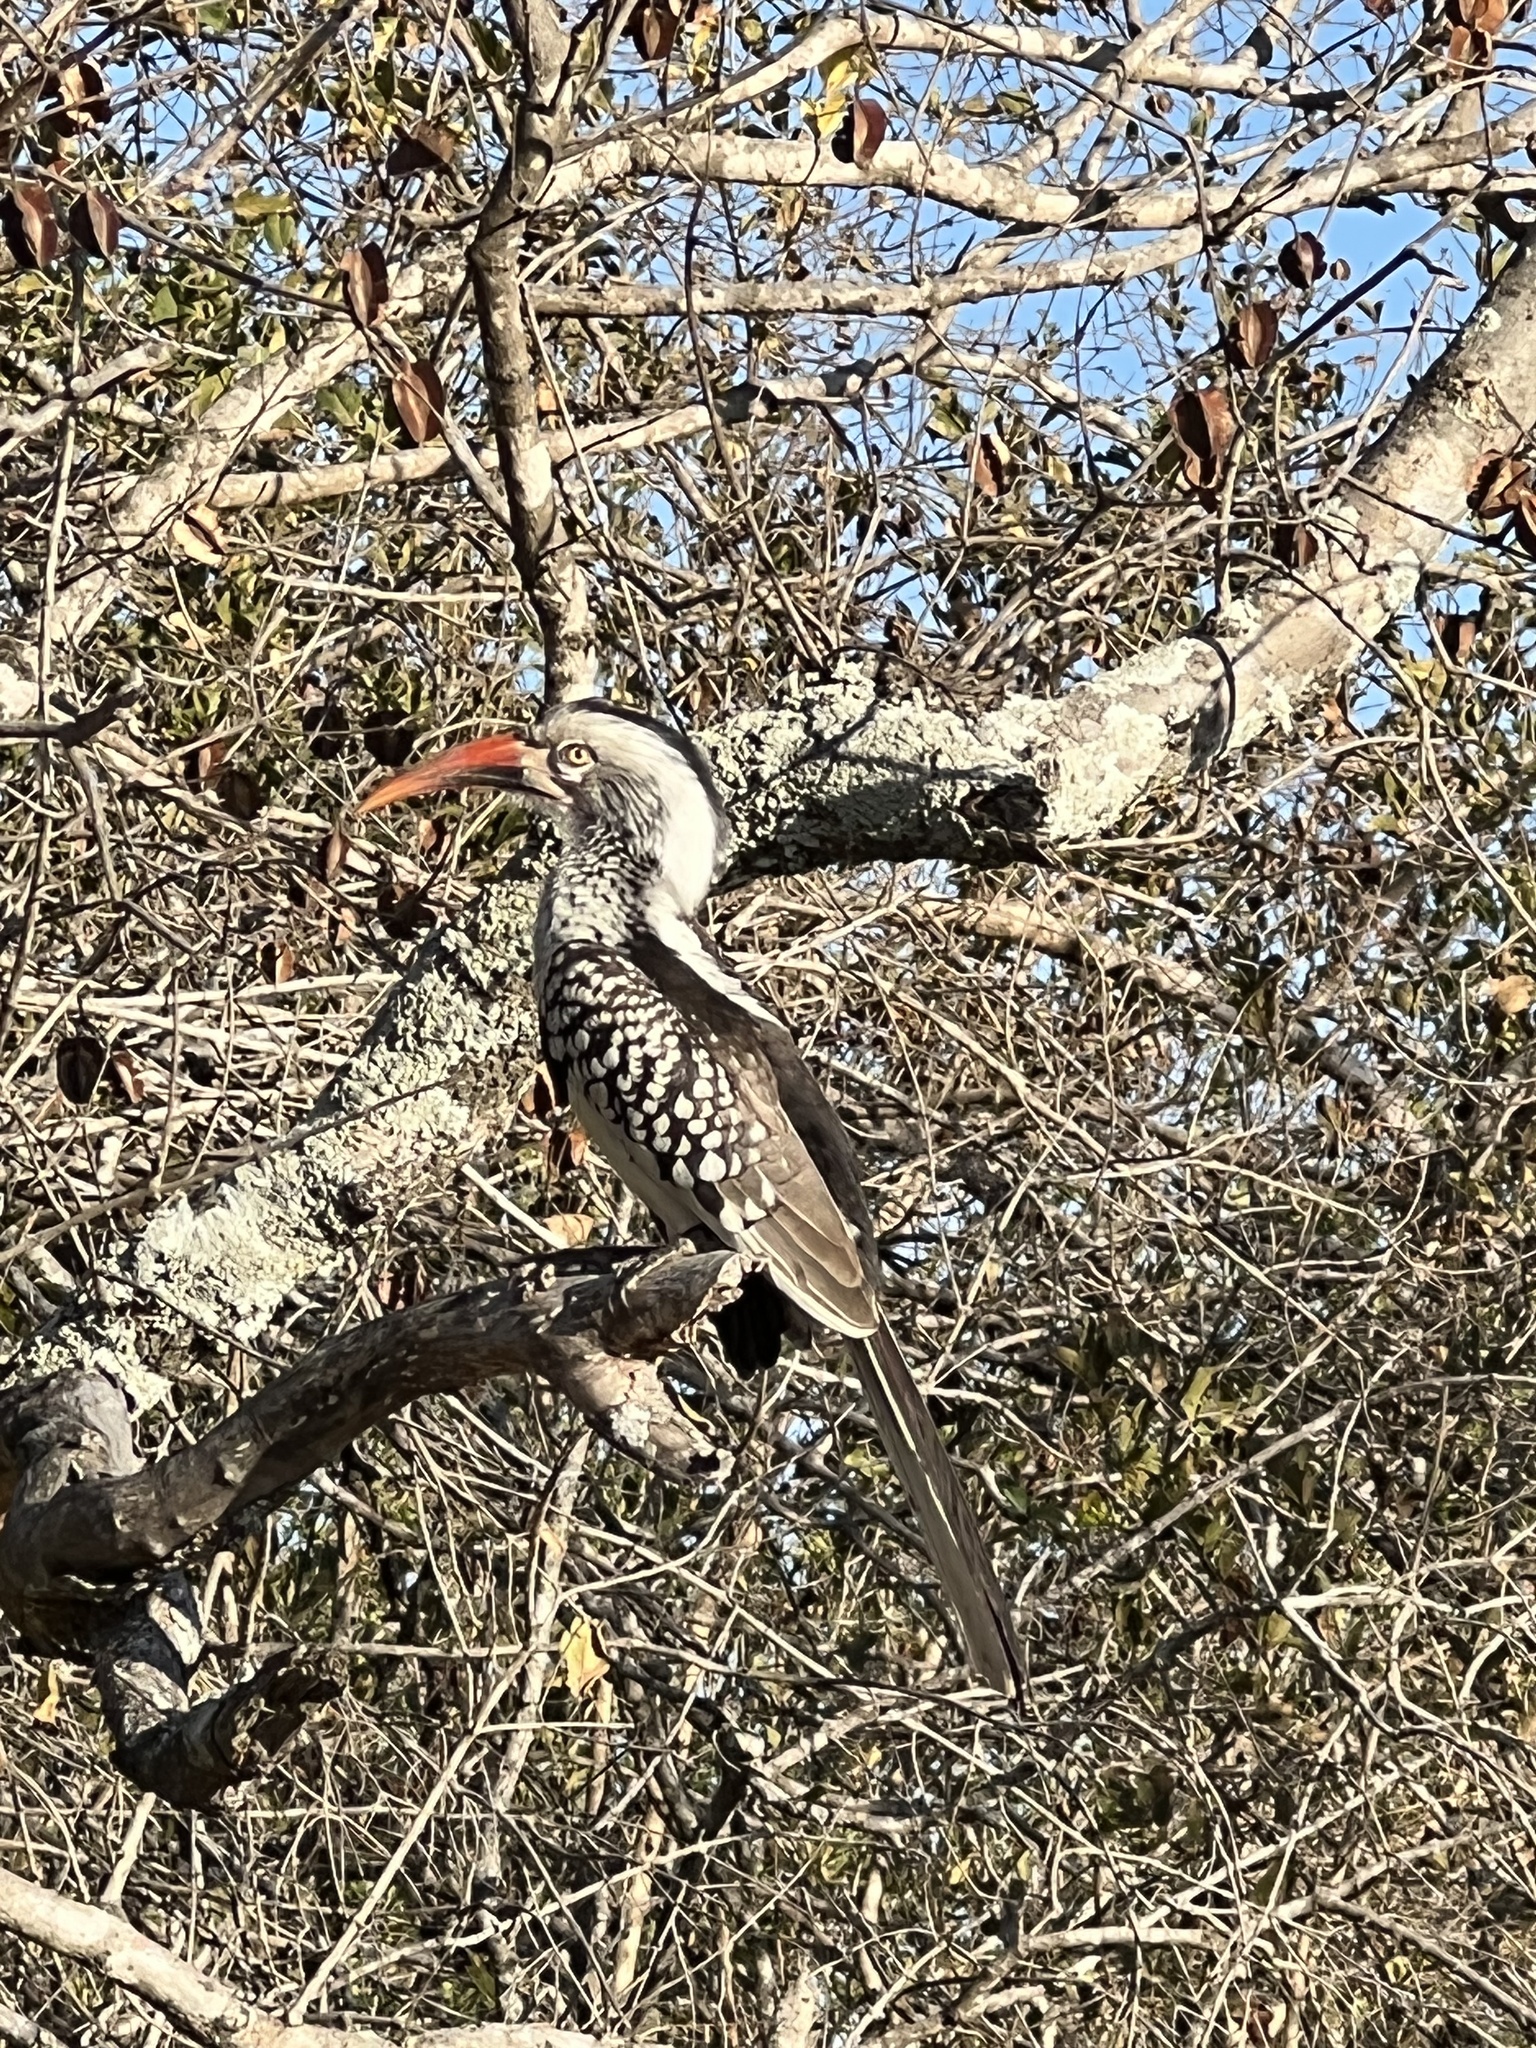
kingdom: Animalia
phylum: Chordata
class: Aves
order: Bucerotiformes
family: Bucerotidae
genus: Tockus
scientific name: Tockus rufirostris
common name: Southern red-billed hornbill
